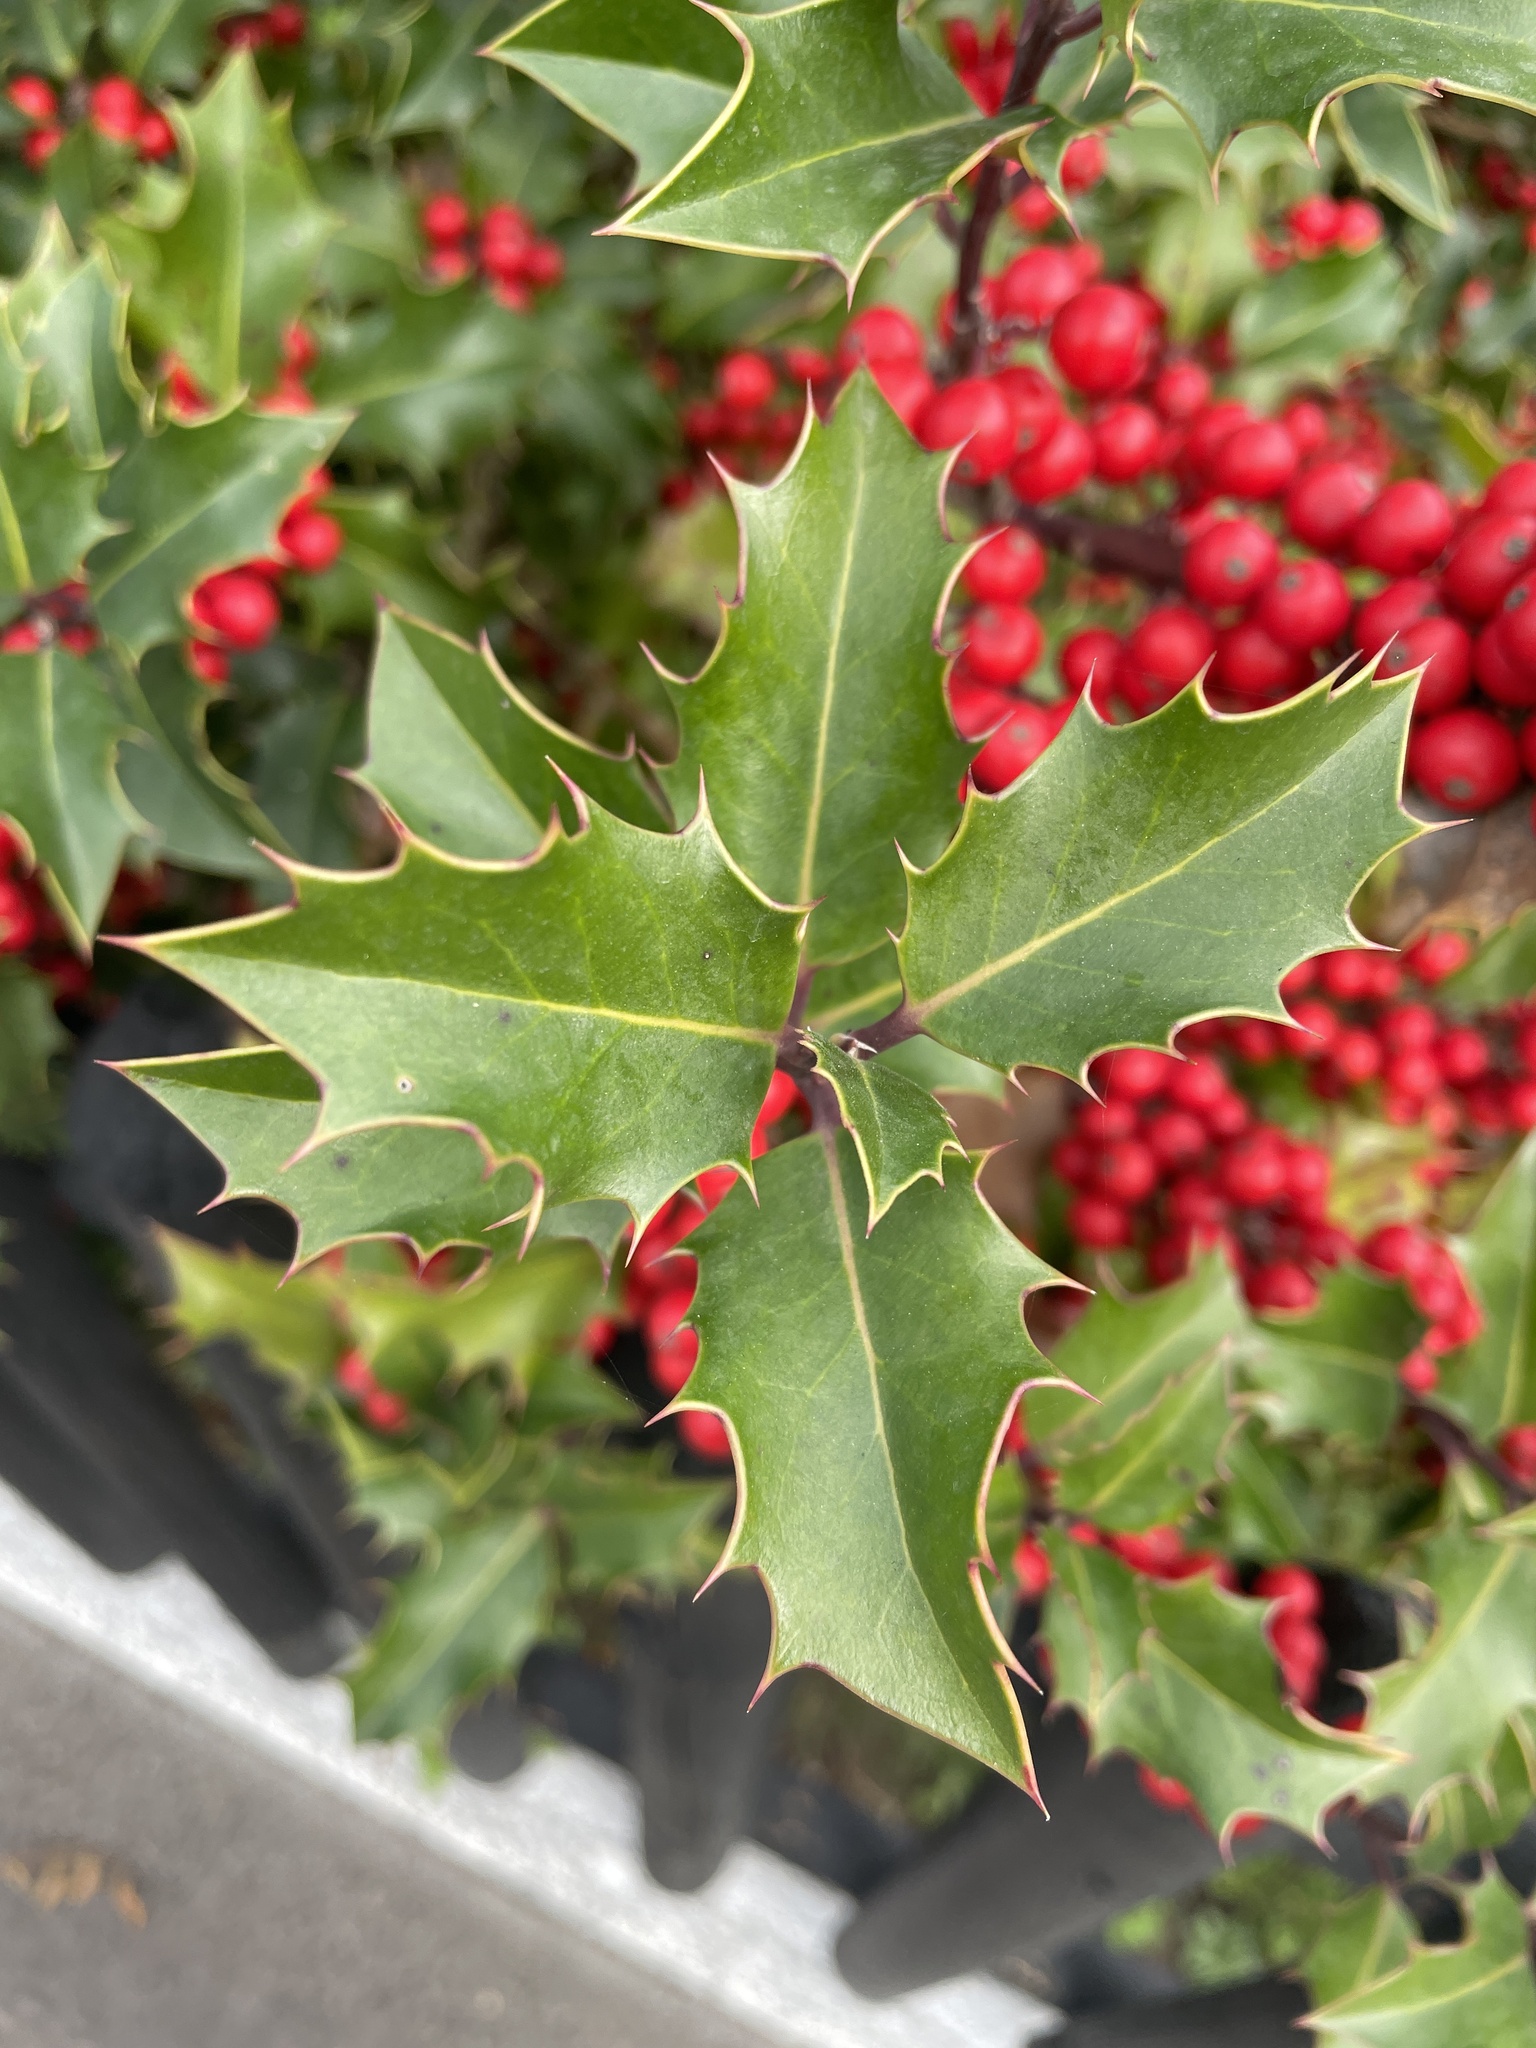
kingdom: Plantae
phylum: Tracheophyta
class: Magnoliopsida
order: Aquifoliales
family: Aquifoliaceae
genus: Ilex
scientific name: Ilex aquifolium
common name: English holly
